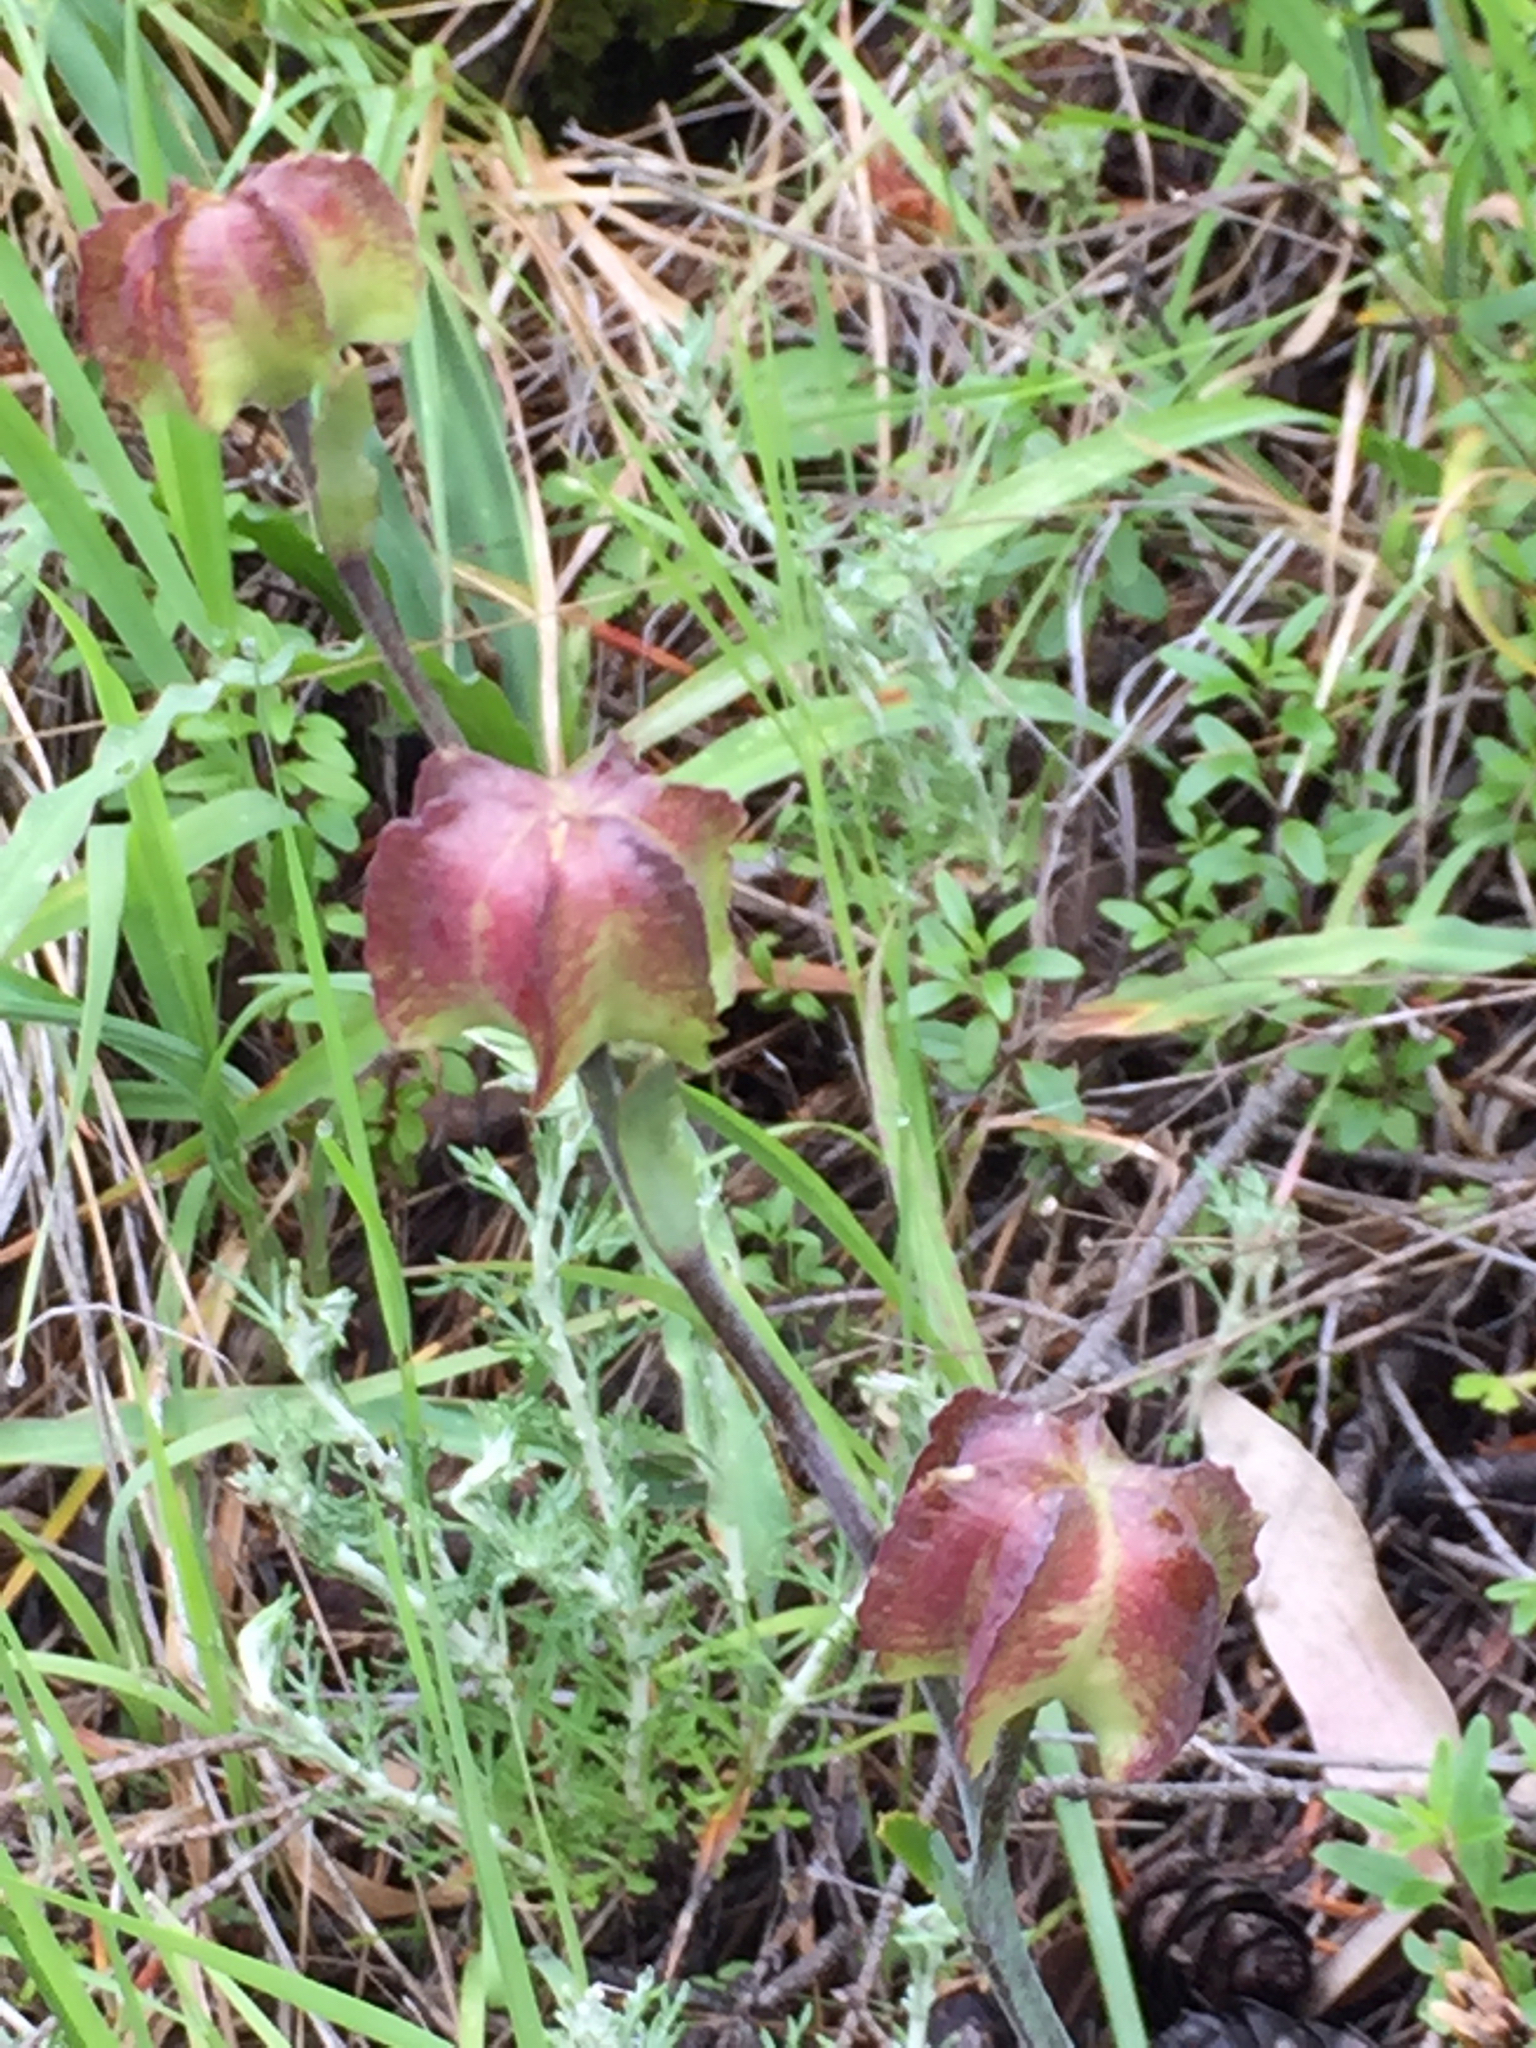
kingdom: Plantae
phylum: Tracheophyta
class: Liliopsida
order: Liliales
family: Liliaceae
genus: Fritillaria
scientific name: Fritillaria affinis
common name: Ojai fritillary
